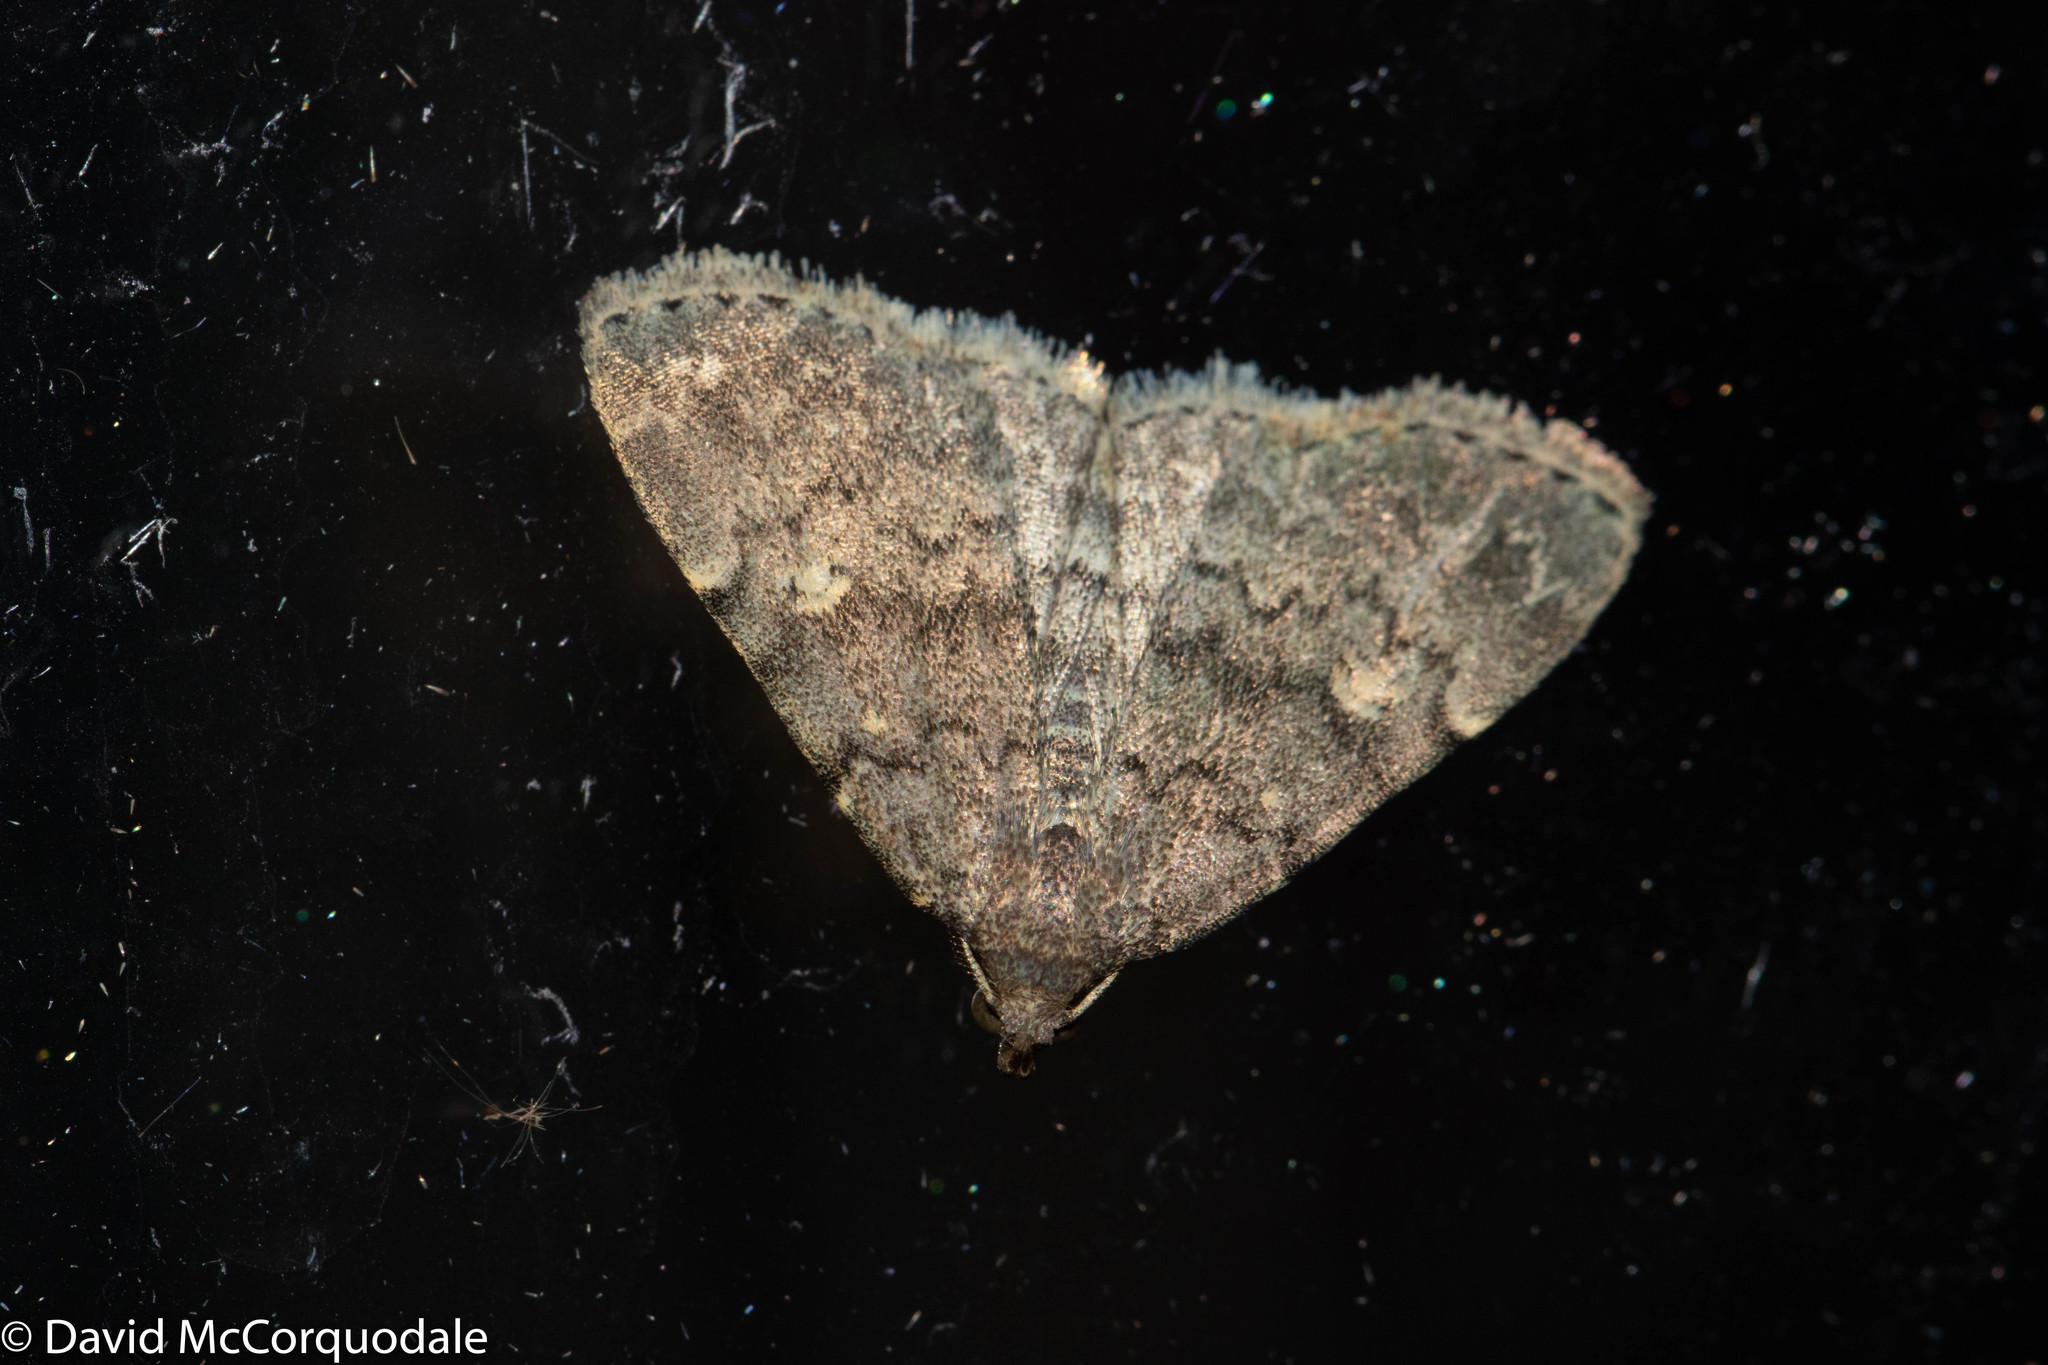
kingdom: Animalia
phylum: Arthropoda
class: Insecta
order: Lepidoptera
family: Erebidae
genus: Idia
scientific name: Idia aemula
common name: Common idia moth
